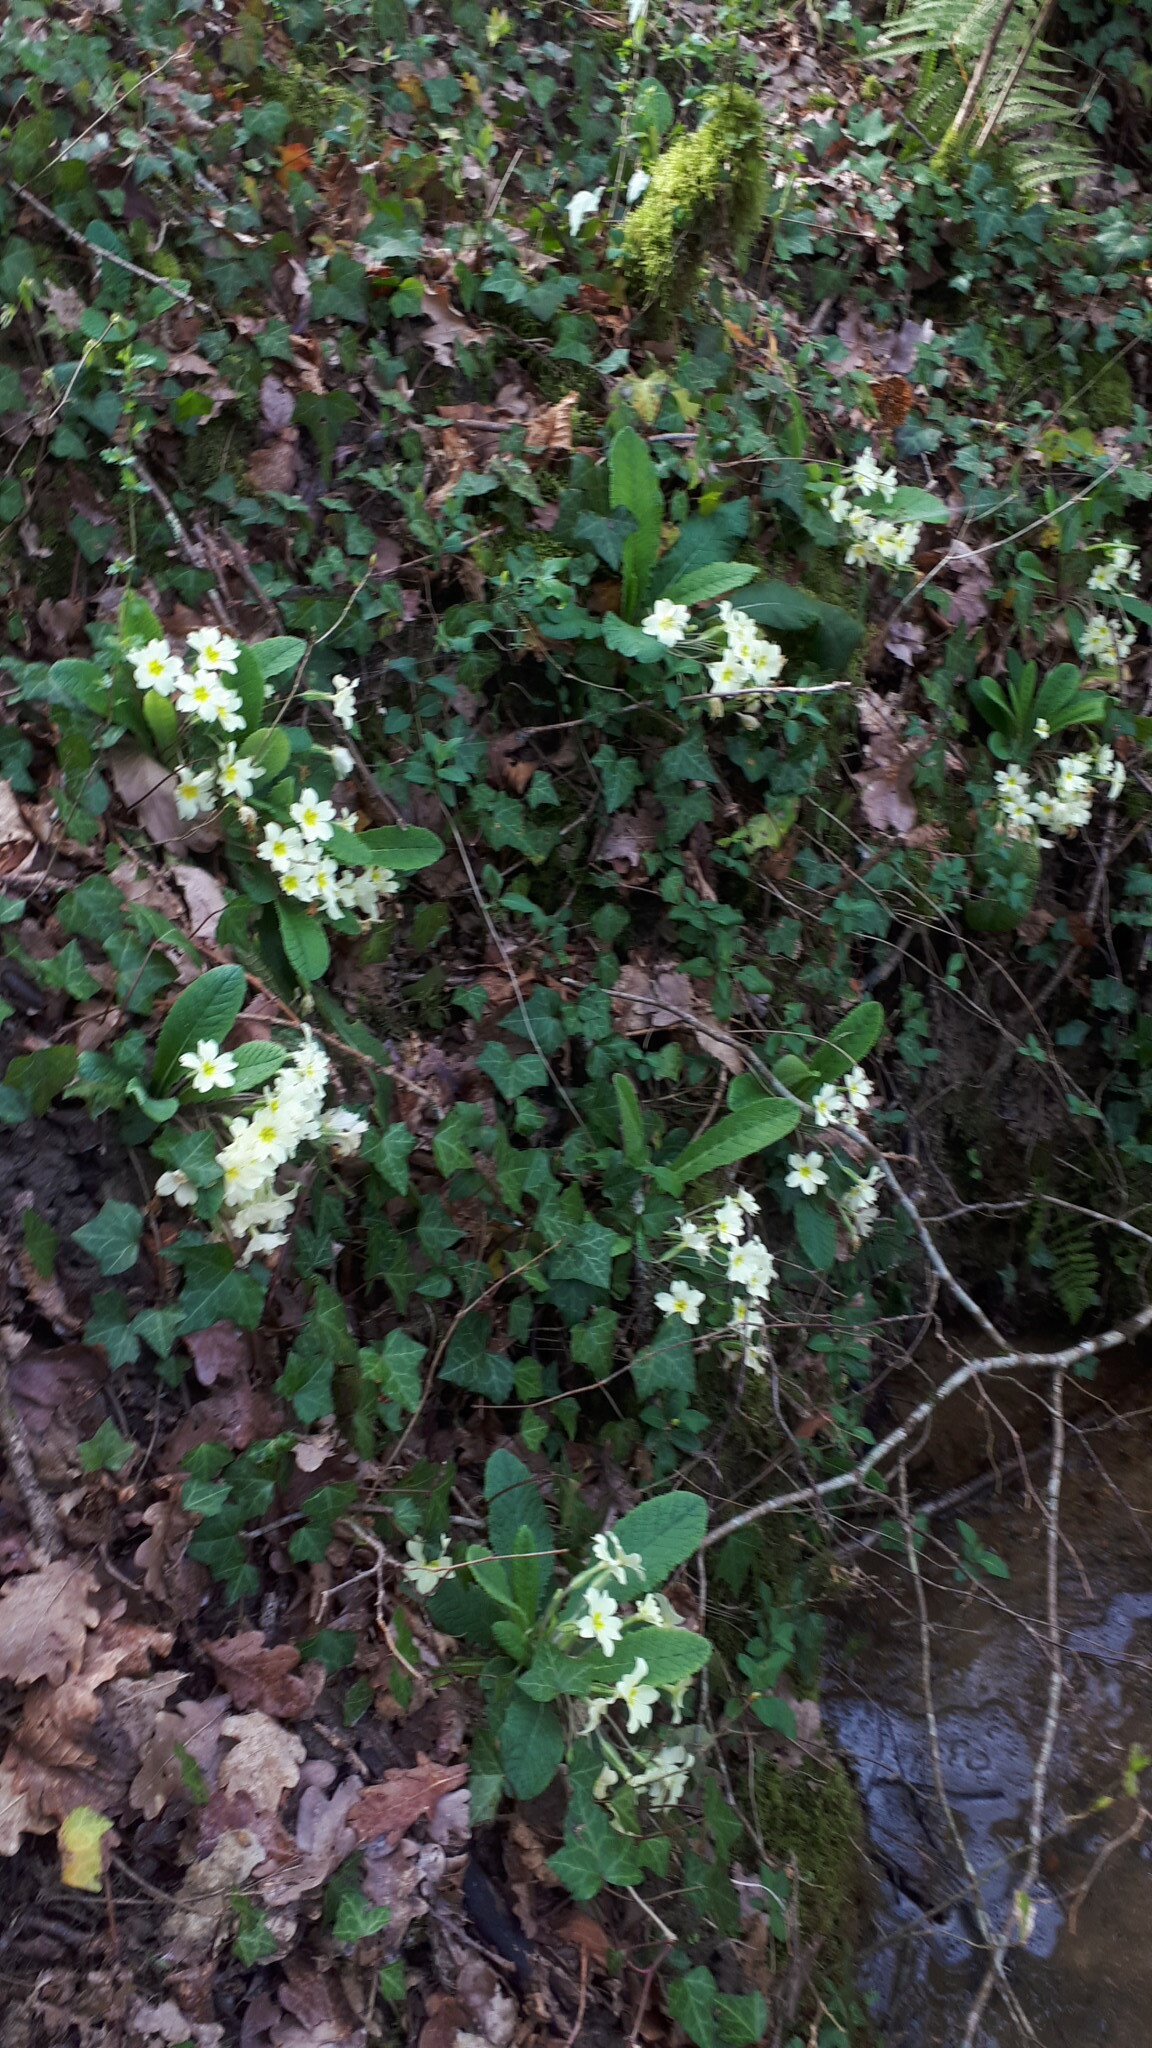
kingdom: Plantae
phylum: Tracheophyta
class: Magnoliopsida
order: Ericales
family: Primulaceae
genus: Primula
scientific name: Primula vulgaris
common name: Primrose
